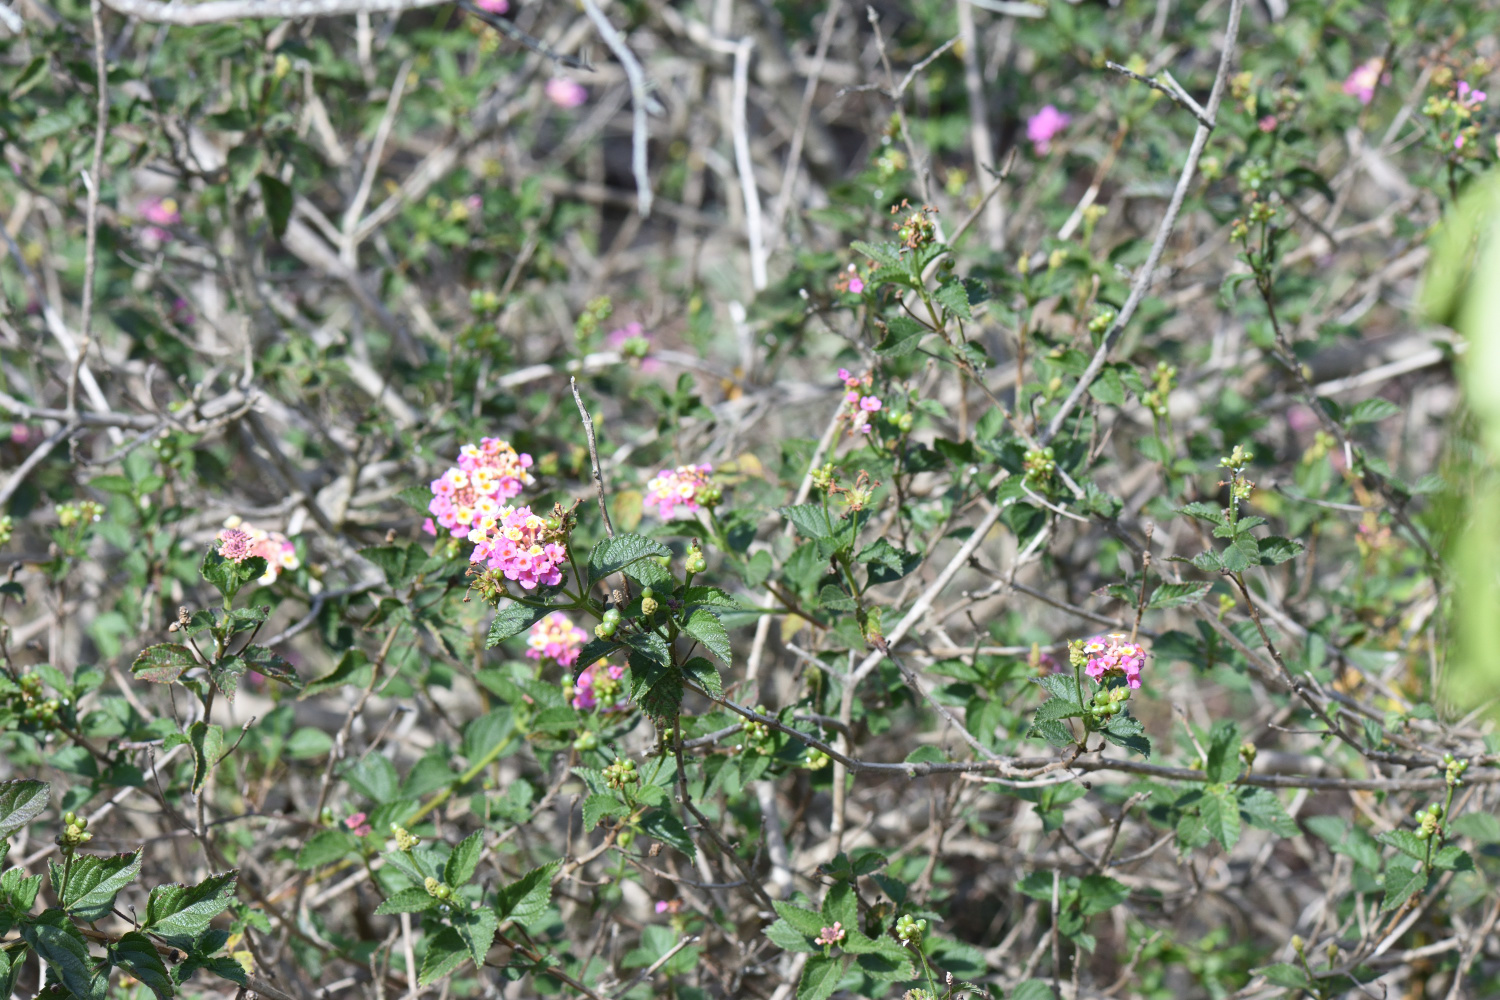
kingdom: Plantae
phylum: Tracheophyta
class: Magnoliopsida
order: Lamiales
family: Verbenaceae
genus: Lantana
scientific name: Lantana camara
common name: Lantana
